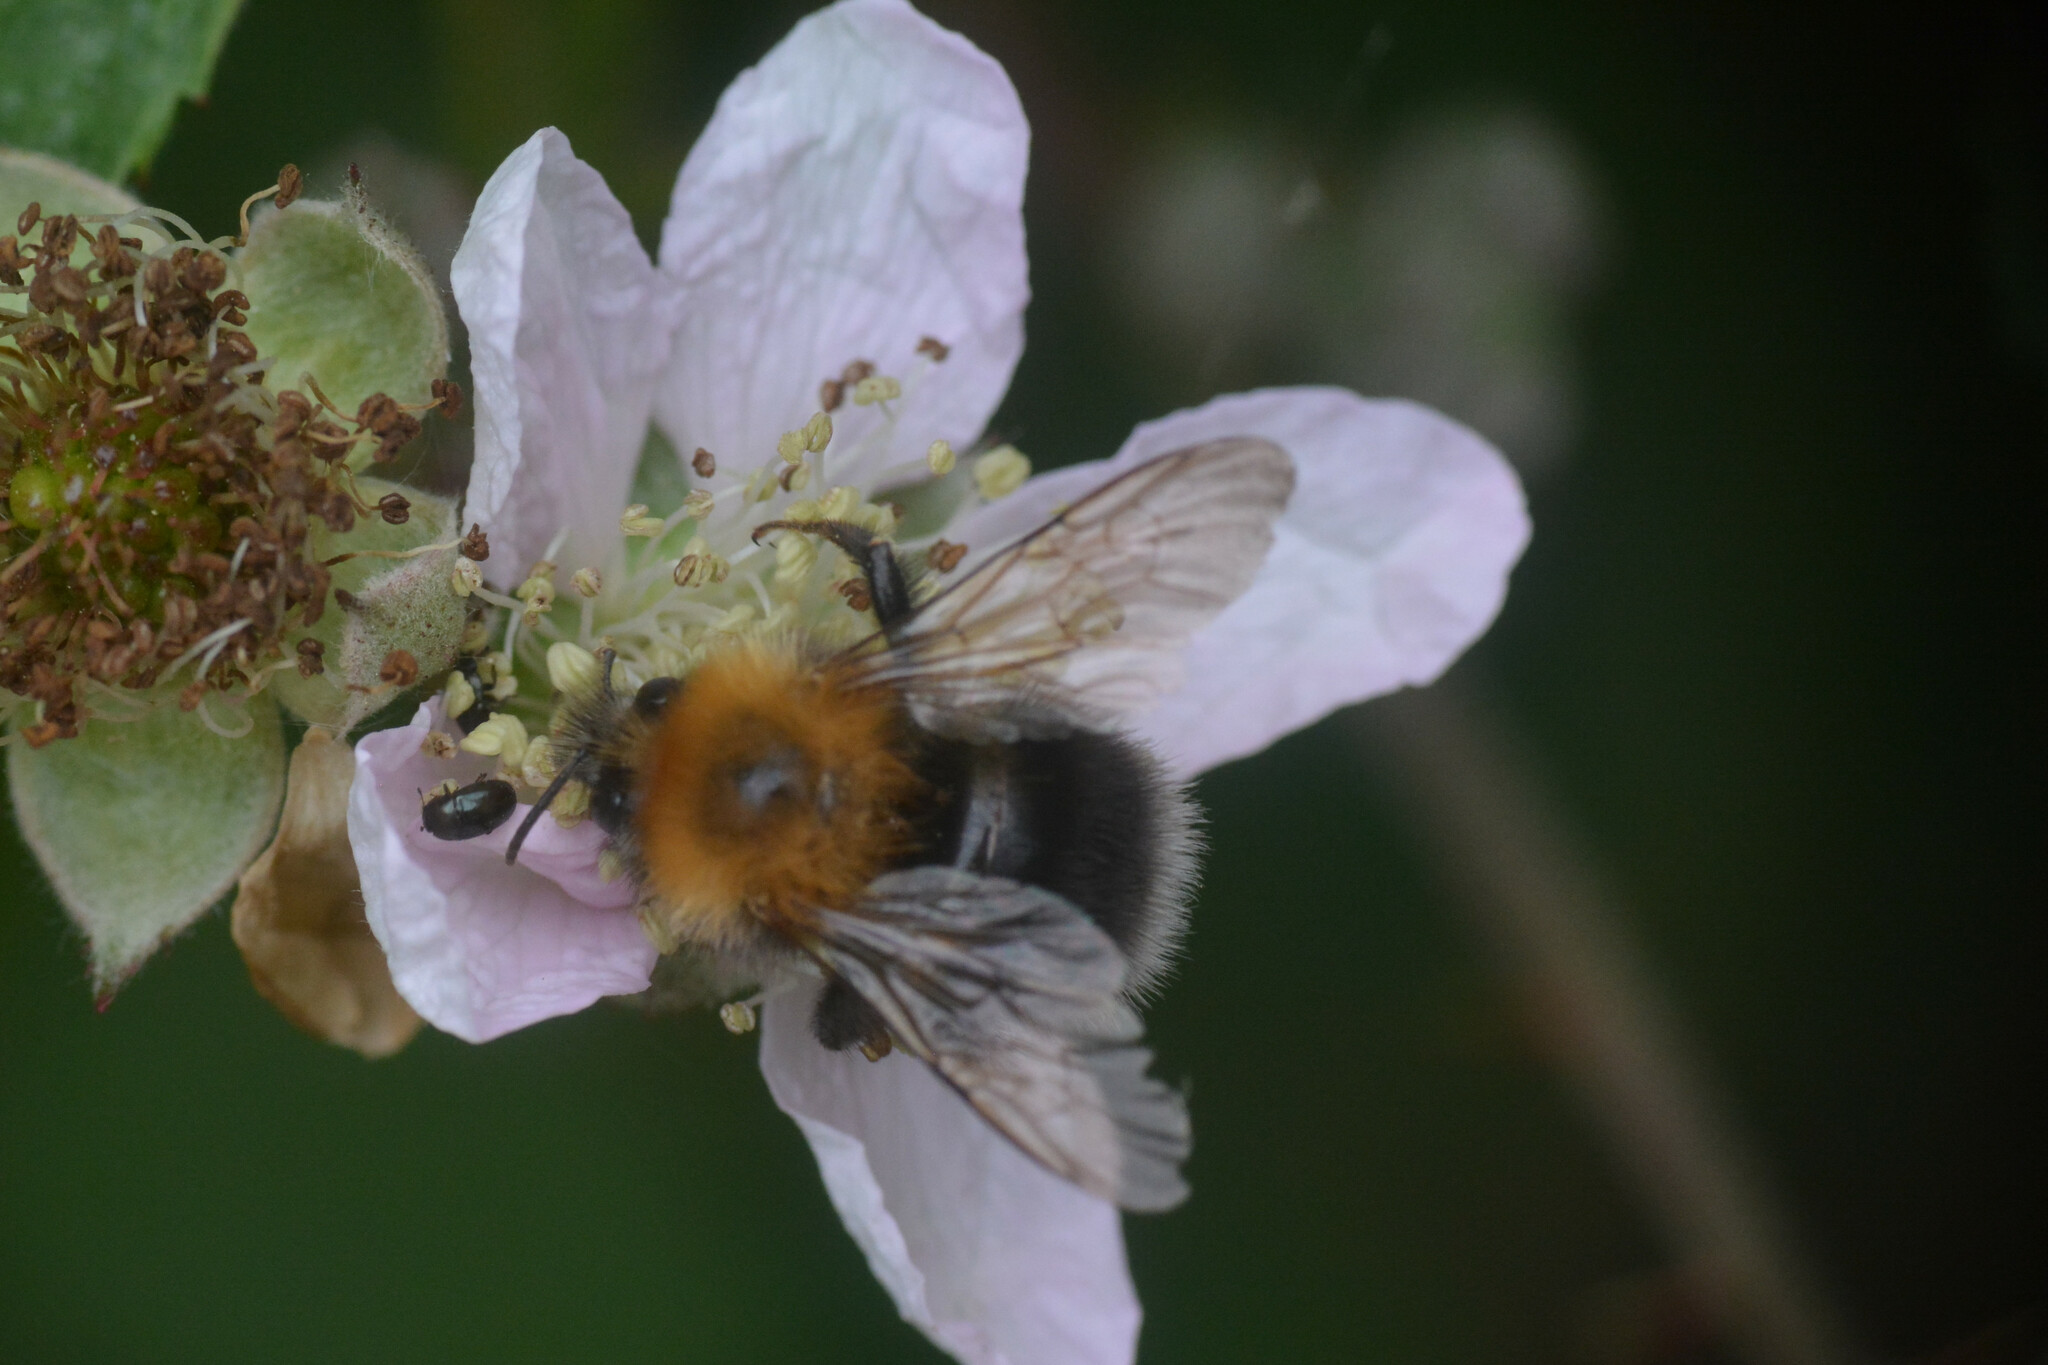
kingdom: Animalia
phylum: Arthropoda
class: Insecta
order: Hymenoptera
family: Apidae
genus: Bombus
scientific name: Bombus hypnorum
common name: New garden bumblebee
